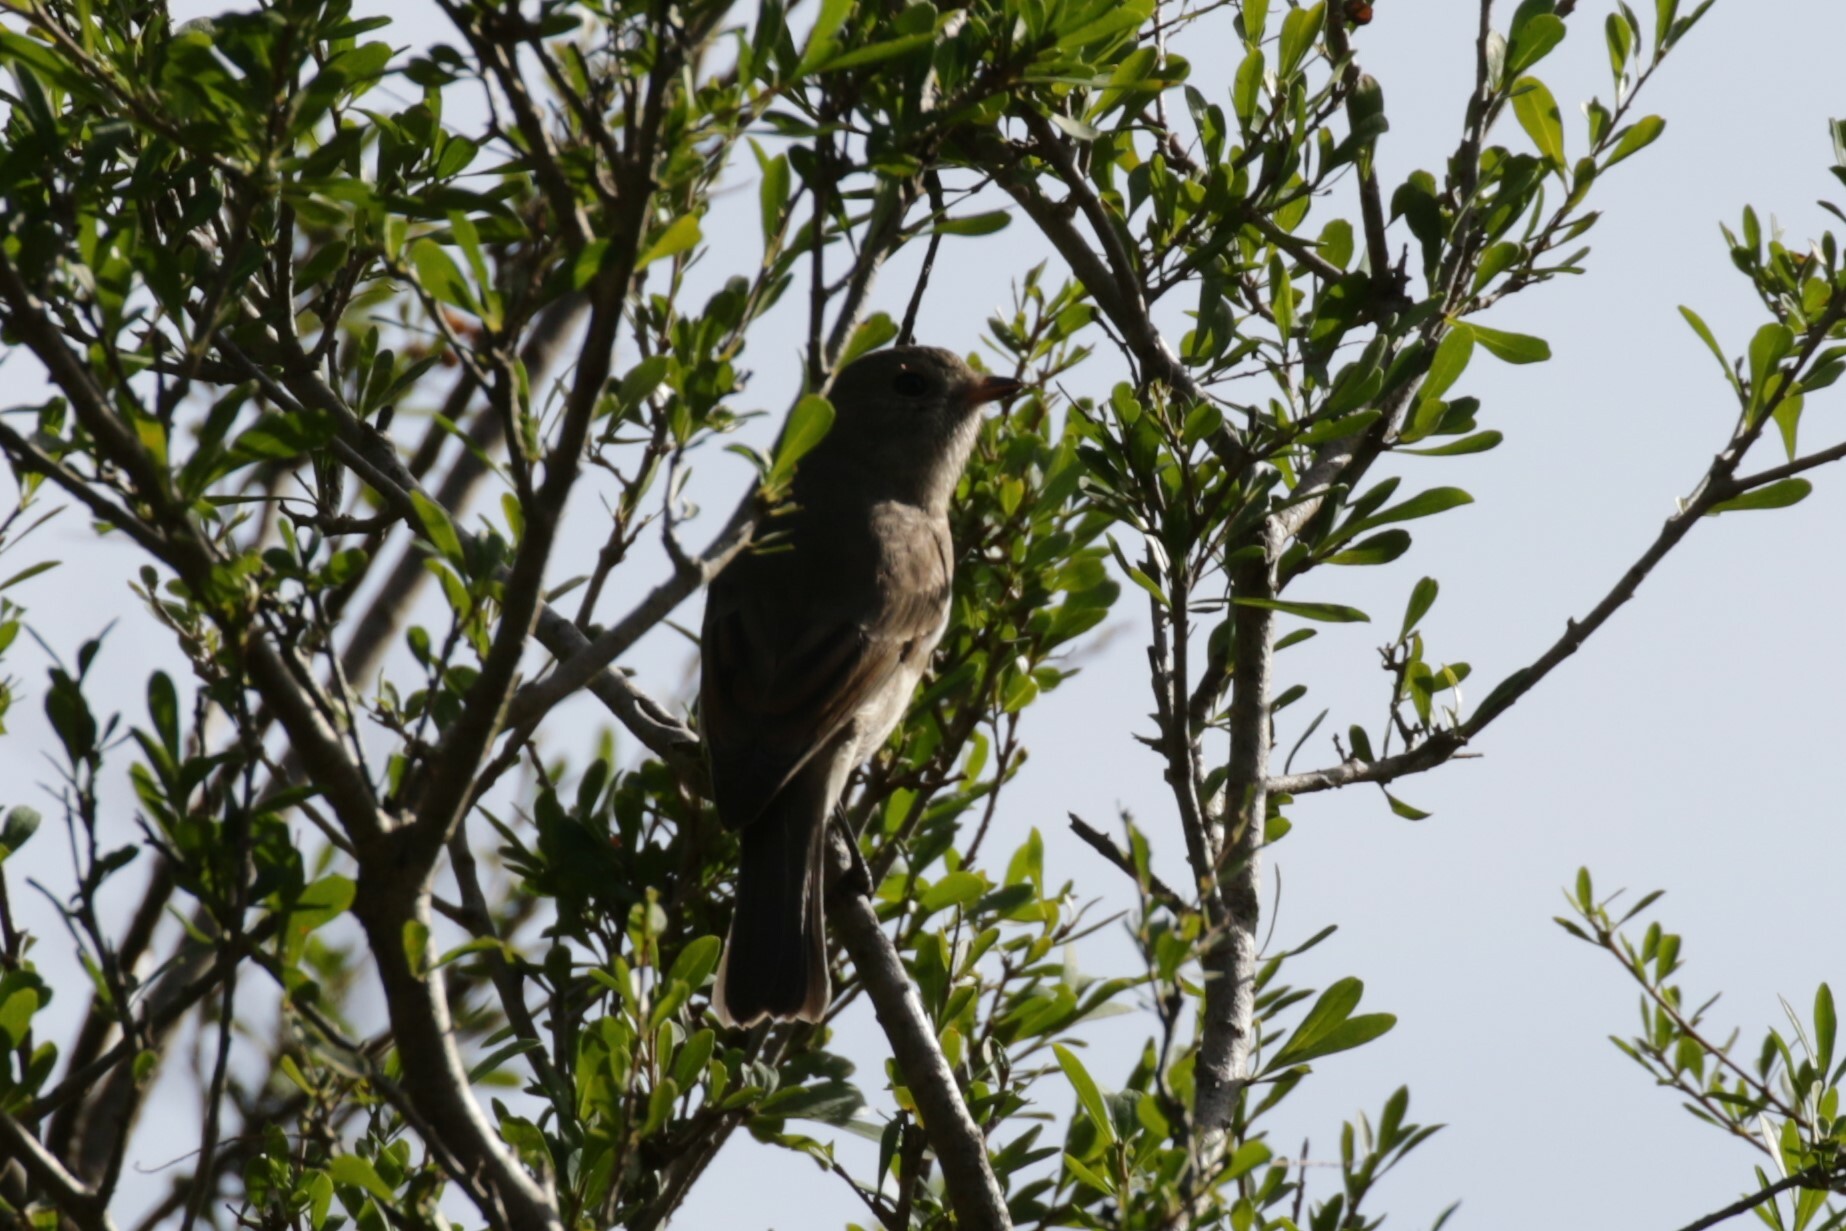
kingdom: Animalia
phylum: Chordata
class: Aves
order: Passeriformes
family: Pachycephalidae
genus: Pachycephala
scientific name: Pachycephala pectoralis
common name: Australian golden whistler
